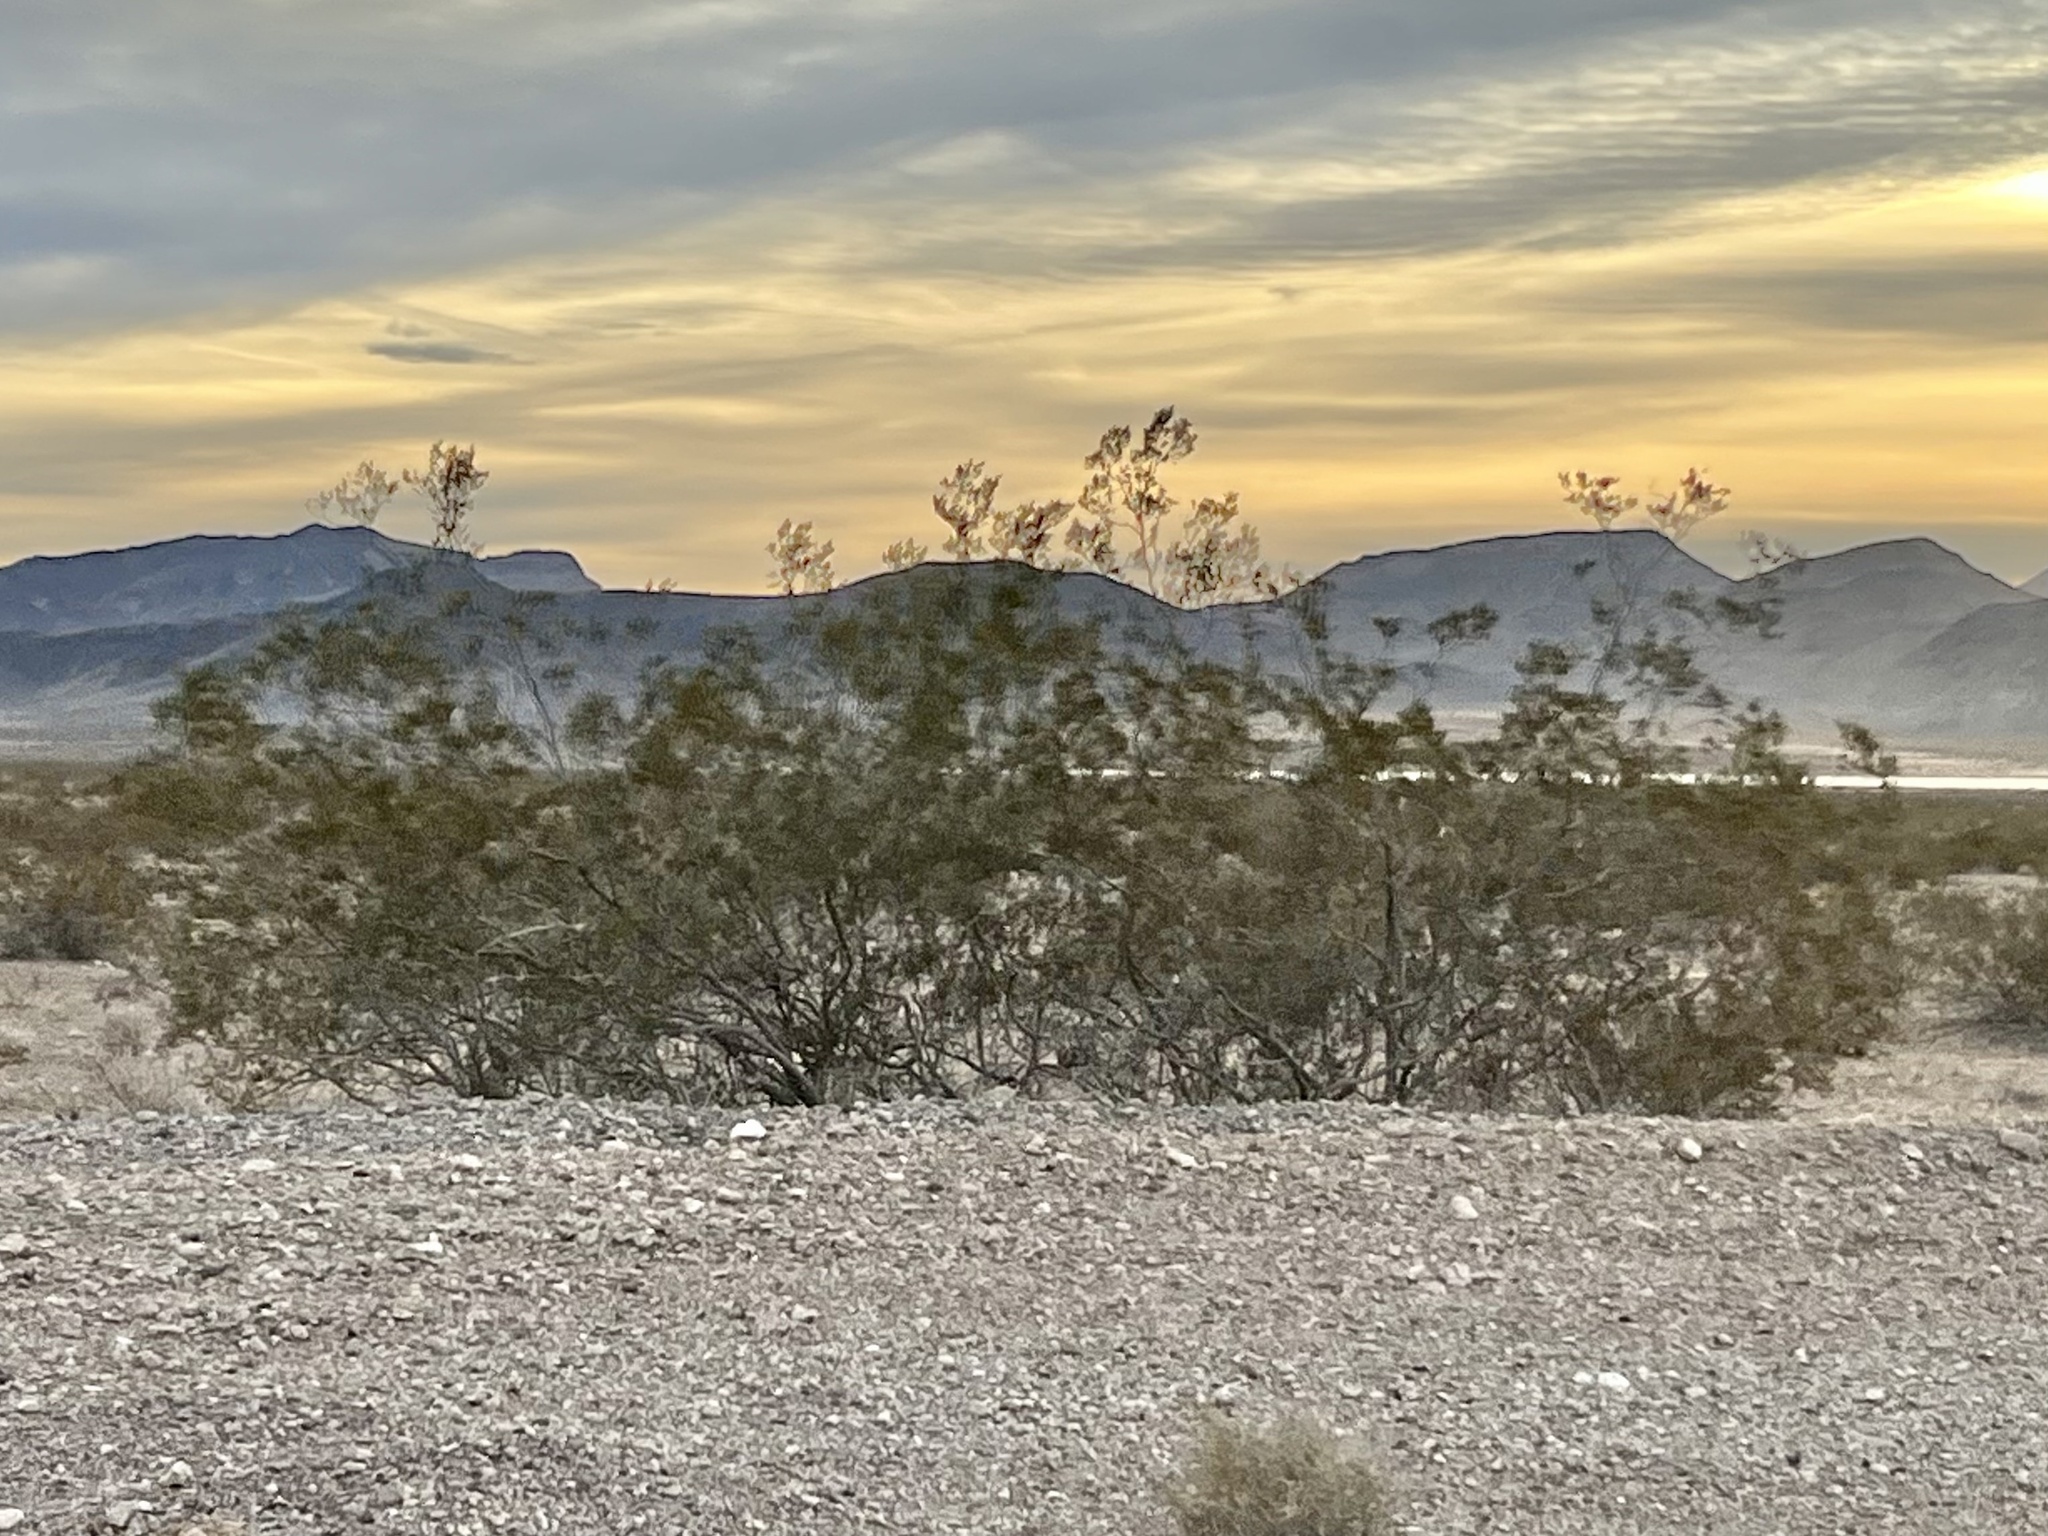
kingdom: Plantae
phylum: Tracheophyta
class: Magnoliopsida
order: Zygophyllales
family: Zygophyllaceae
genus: Larrea
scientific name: Larrea tridentata
